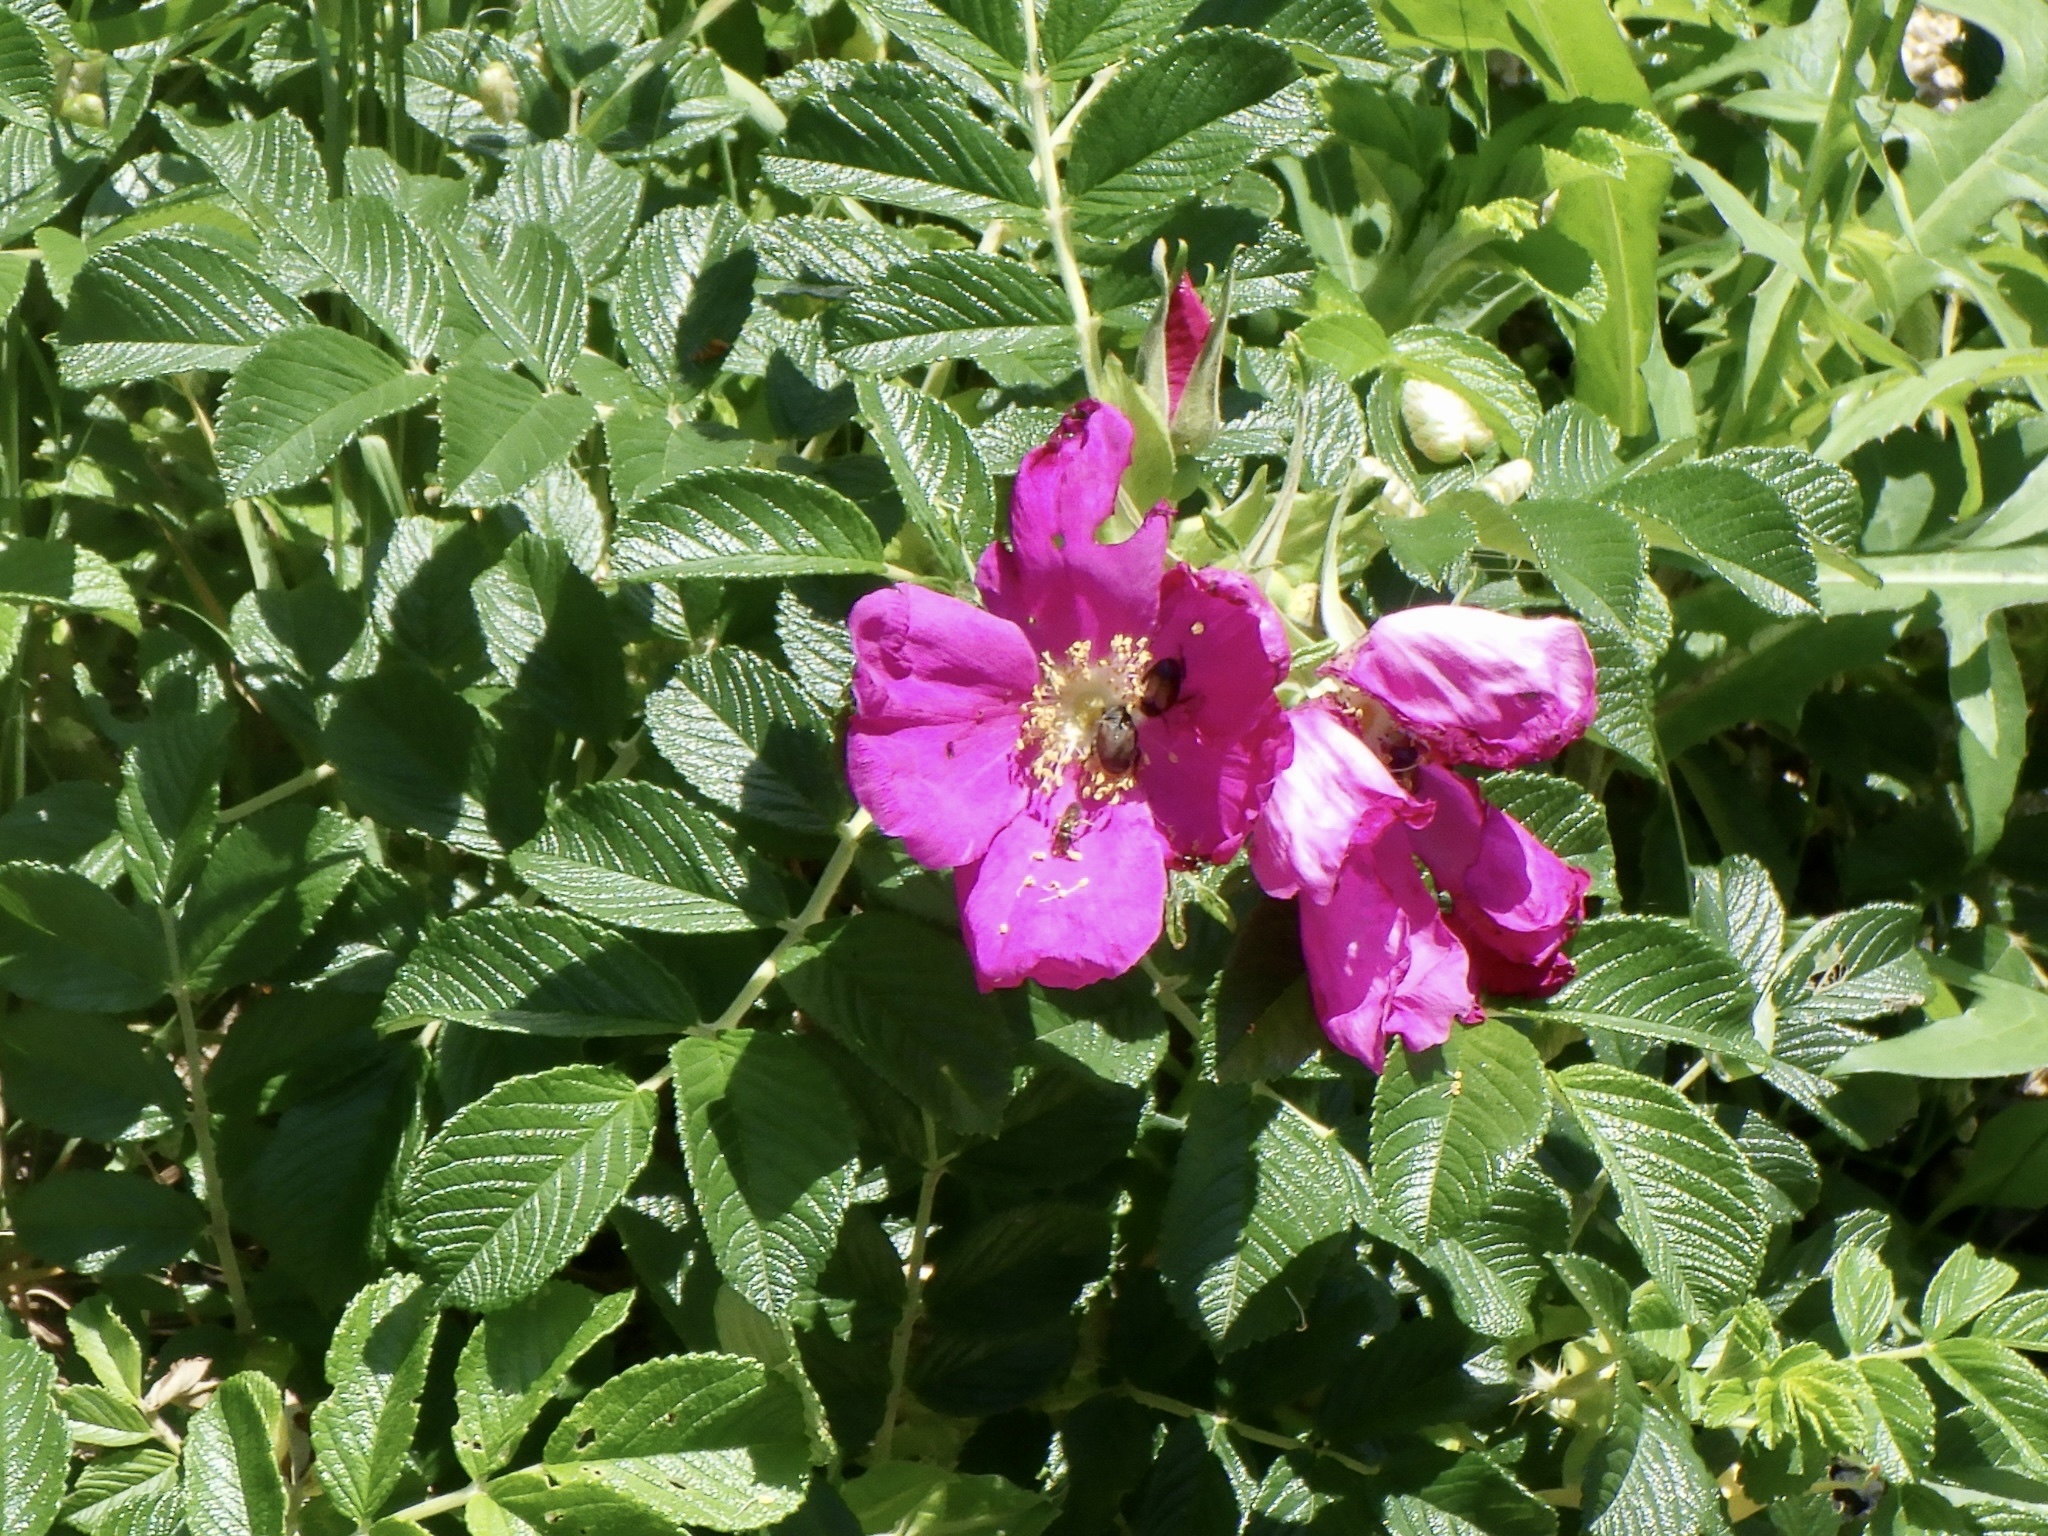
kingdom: Plantae
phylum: Tracheophyta
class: Magnoliopsida
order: Rosales
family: Rosaceae
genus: Rosa
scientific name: Rosa rugosa
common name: Japanese rose
